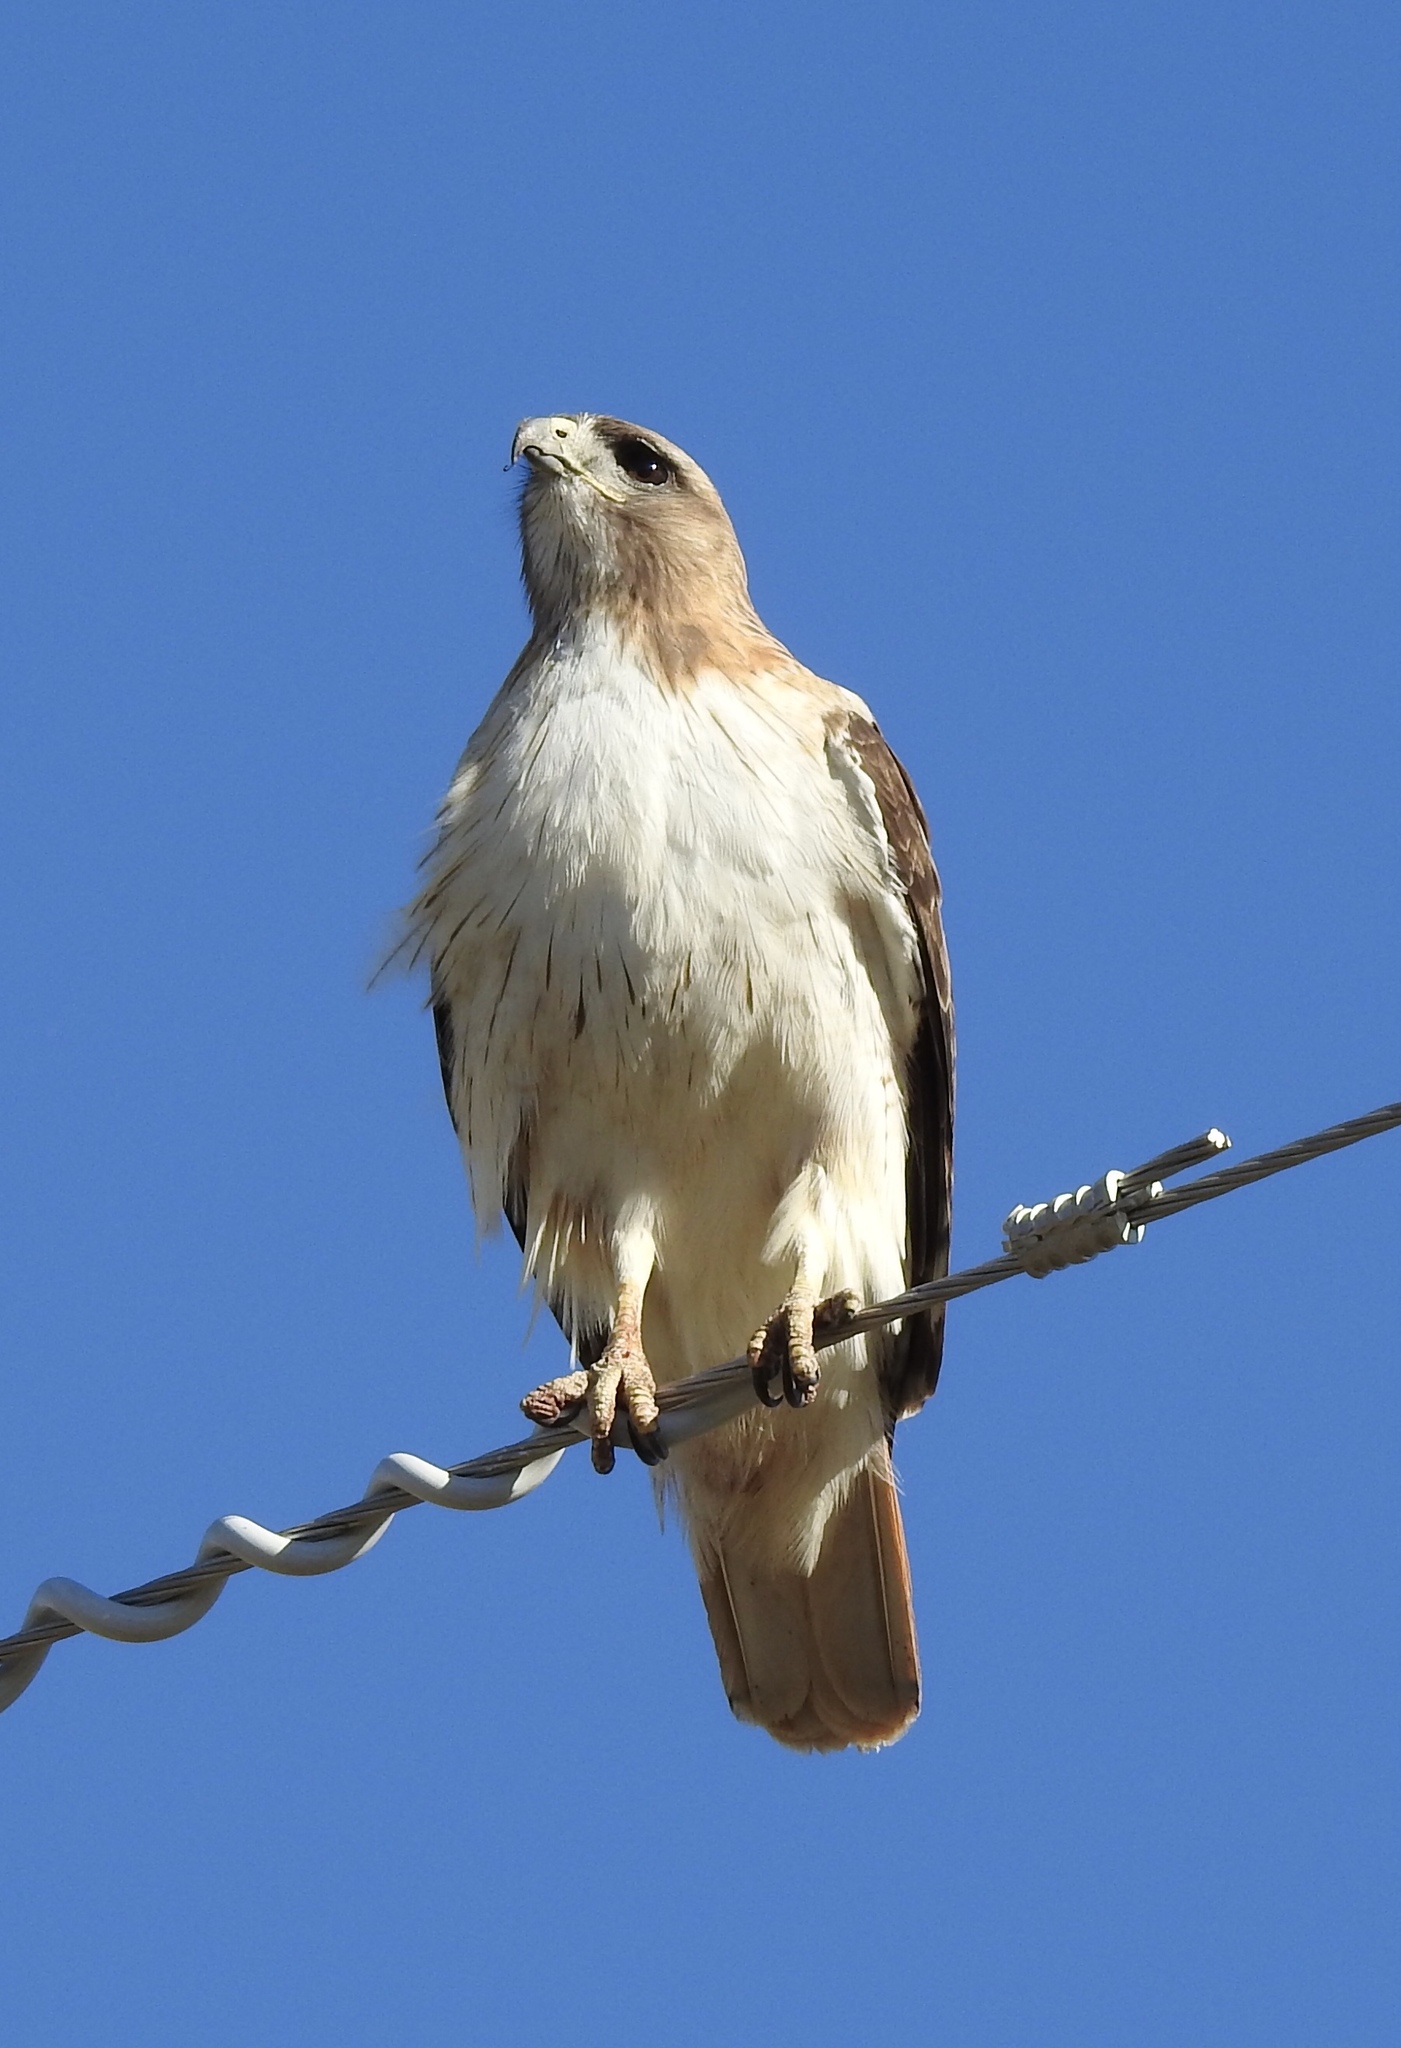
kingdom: Animalia
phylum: Chordata
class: Aves
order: Accipitriformes
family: Accipitridae
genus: Buteo
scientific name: Buteo jamaicensis
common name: Red-tailed hawk
